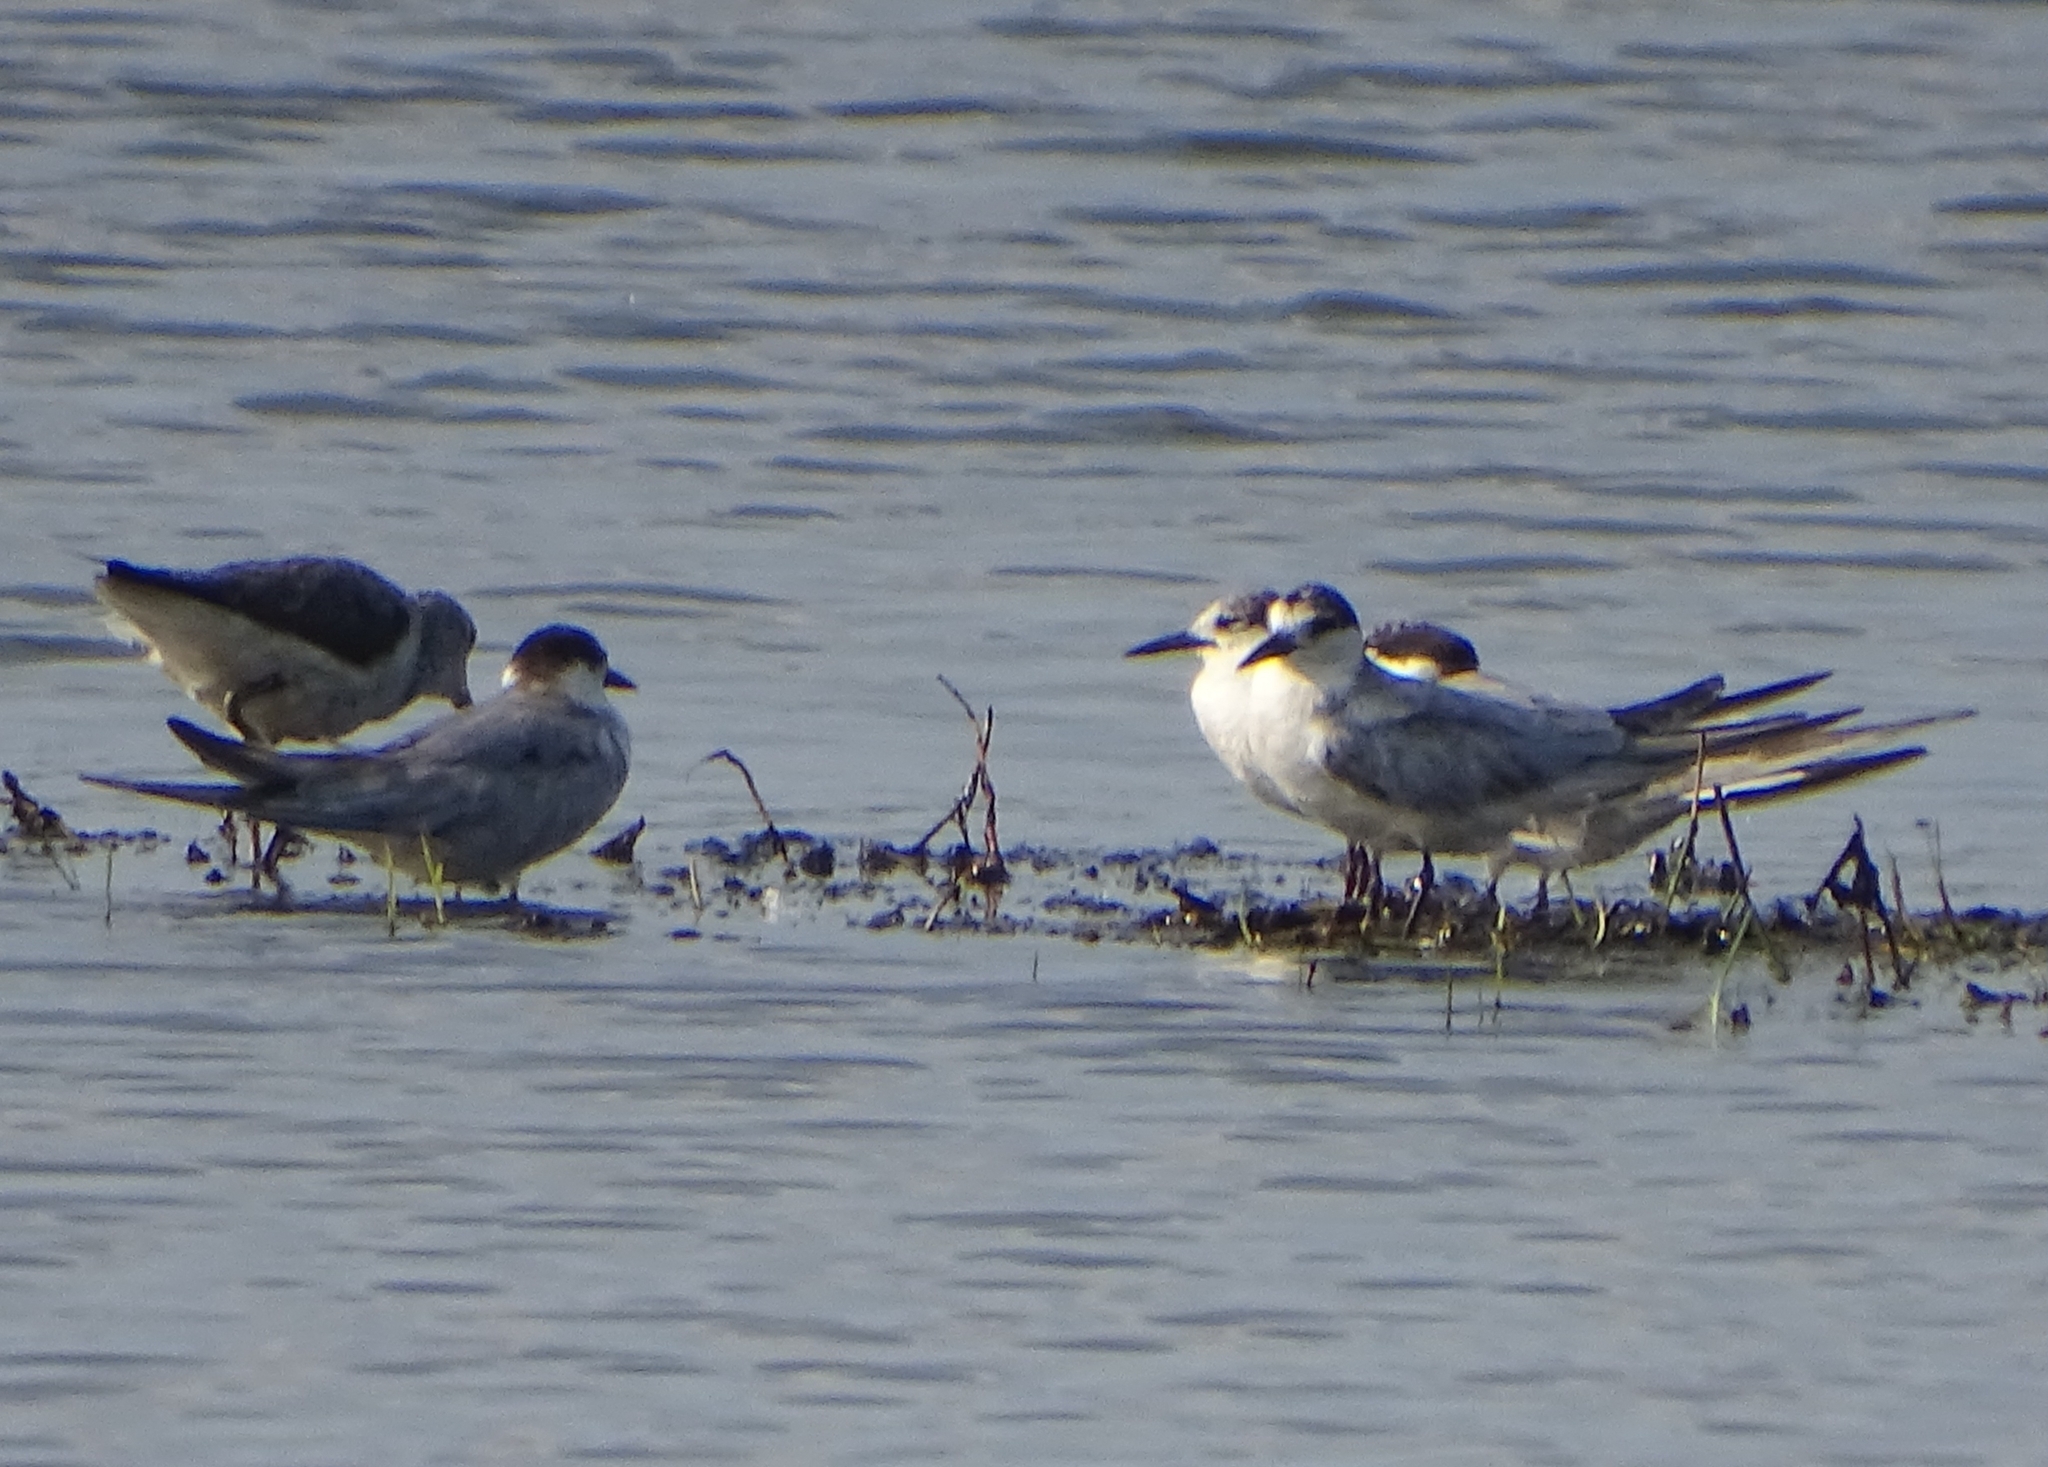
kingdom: Animalia
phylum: Chordata
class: Aves
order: Charadriiformes
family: Laridae
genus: Chlidonias
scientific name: Chlidonias hybrida
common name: Whiskered tern
